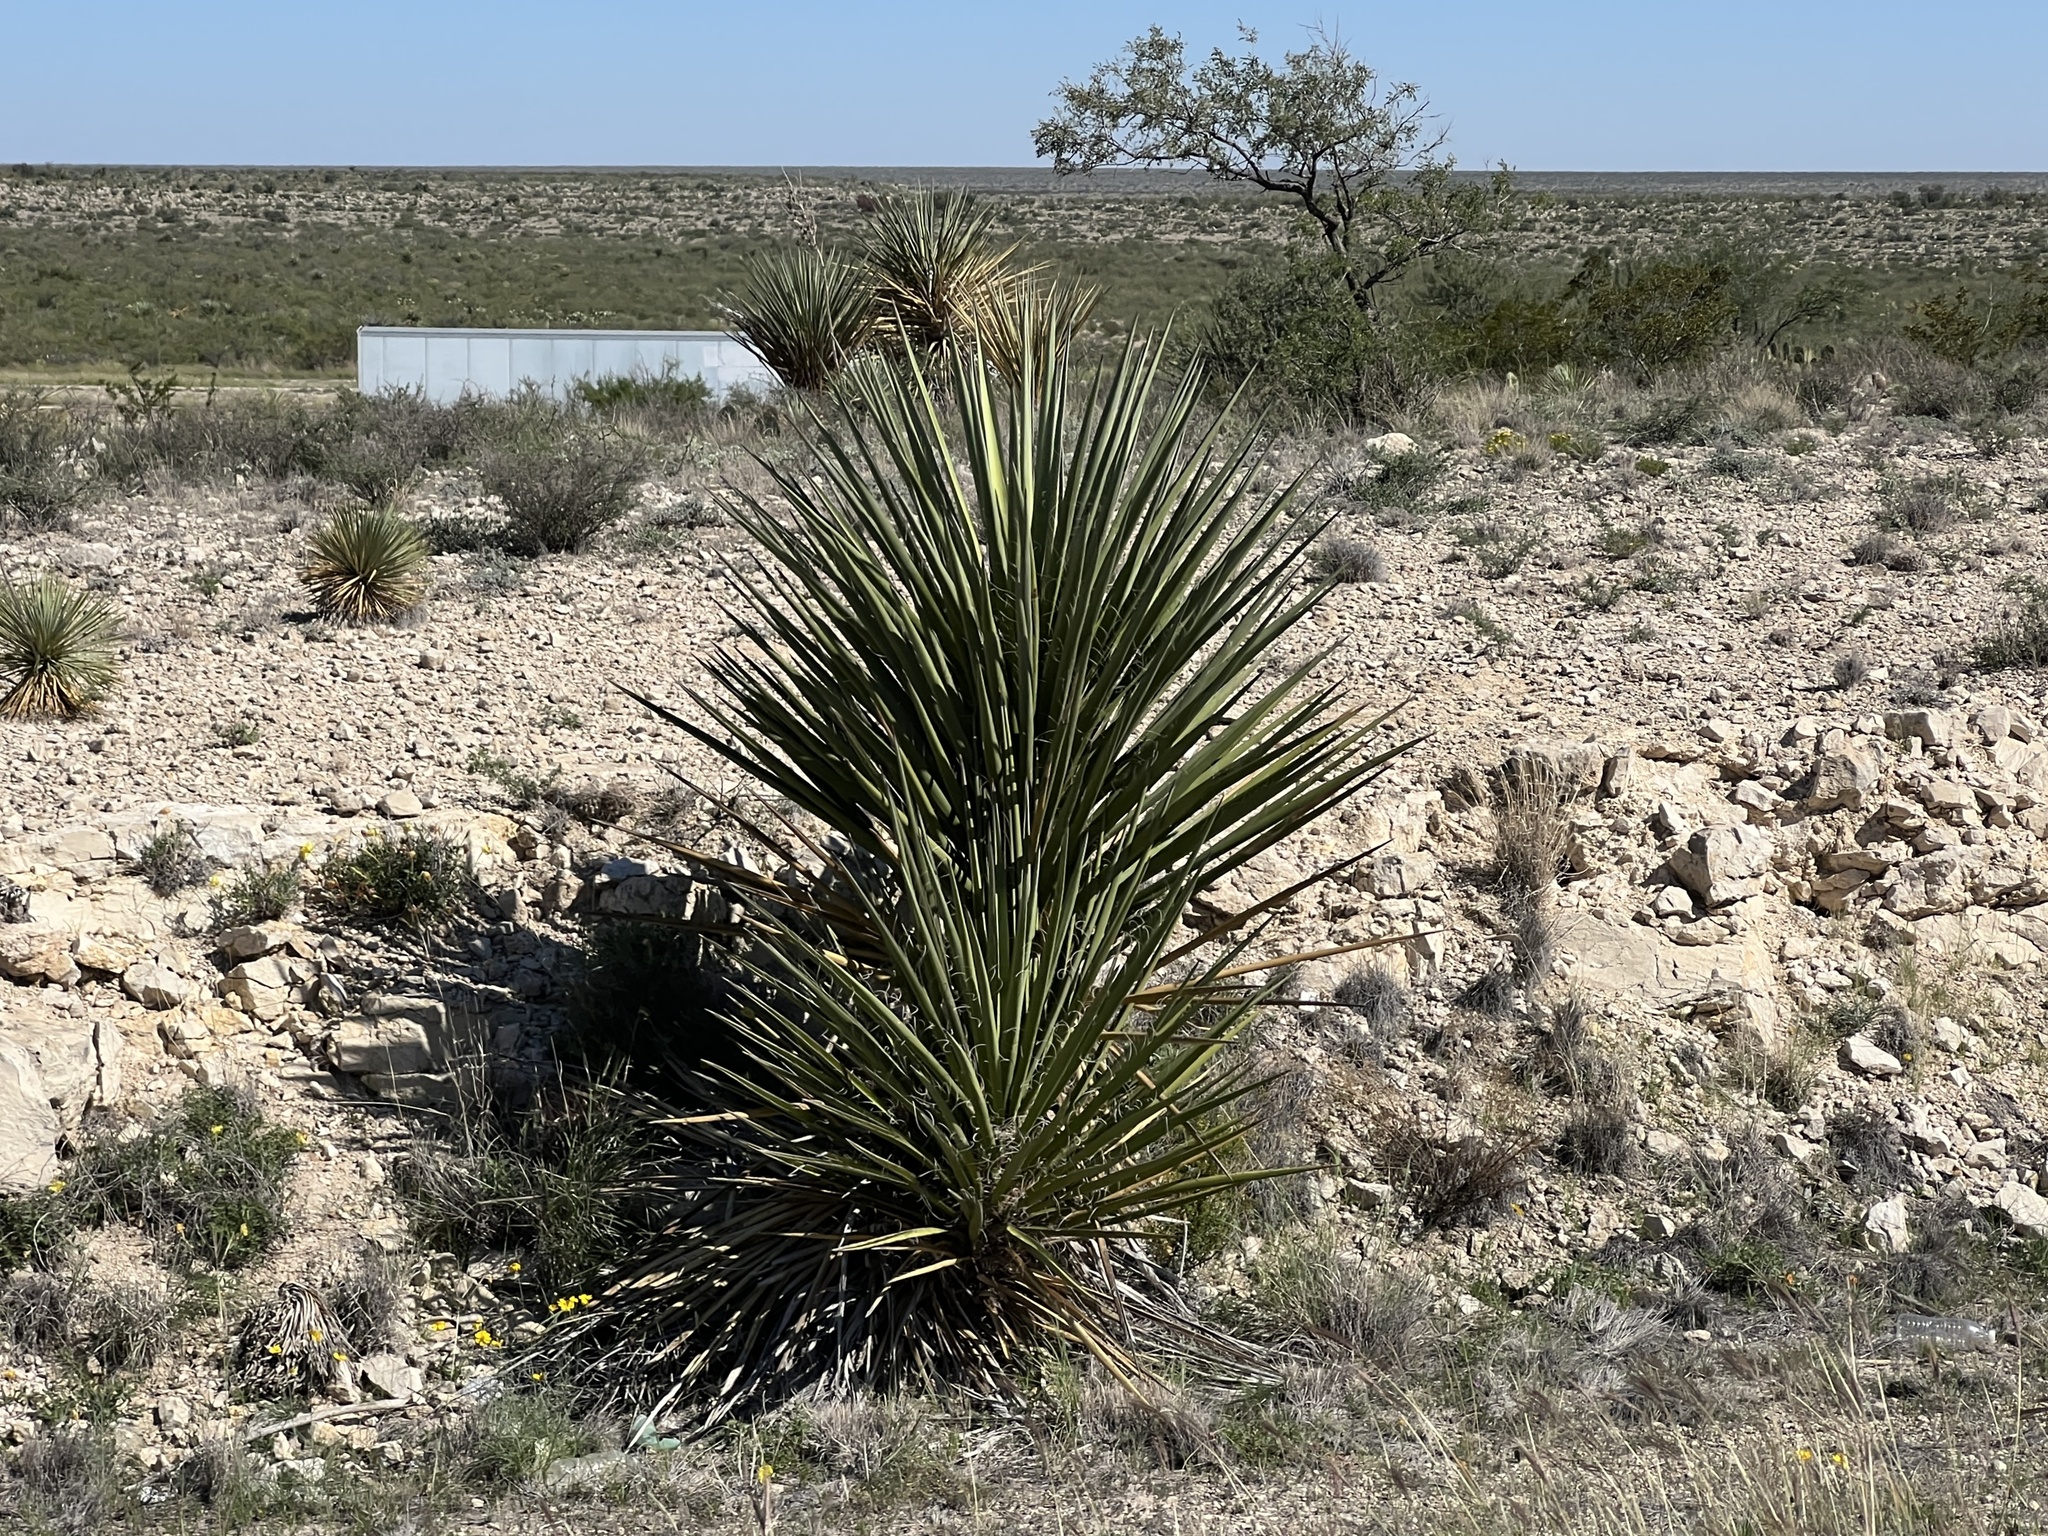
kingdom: Plantae
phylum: Tracheophyta
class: Liliopsida
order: Asparagales
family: Asparagaceae
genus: Yucca
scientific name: Yucca treculiana
